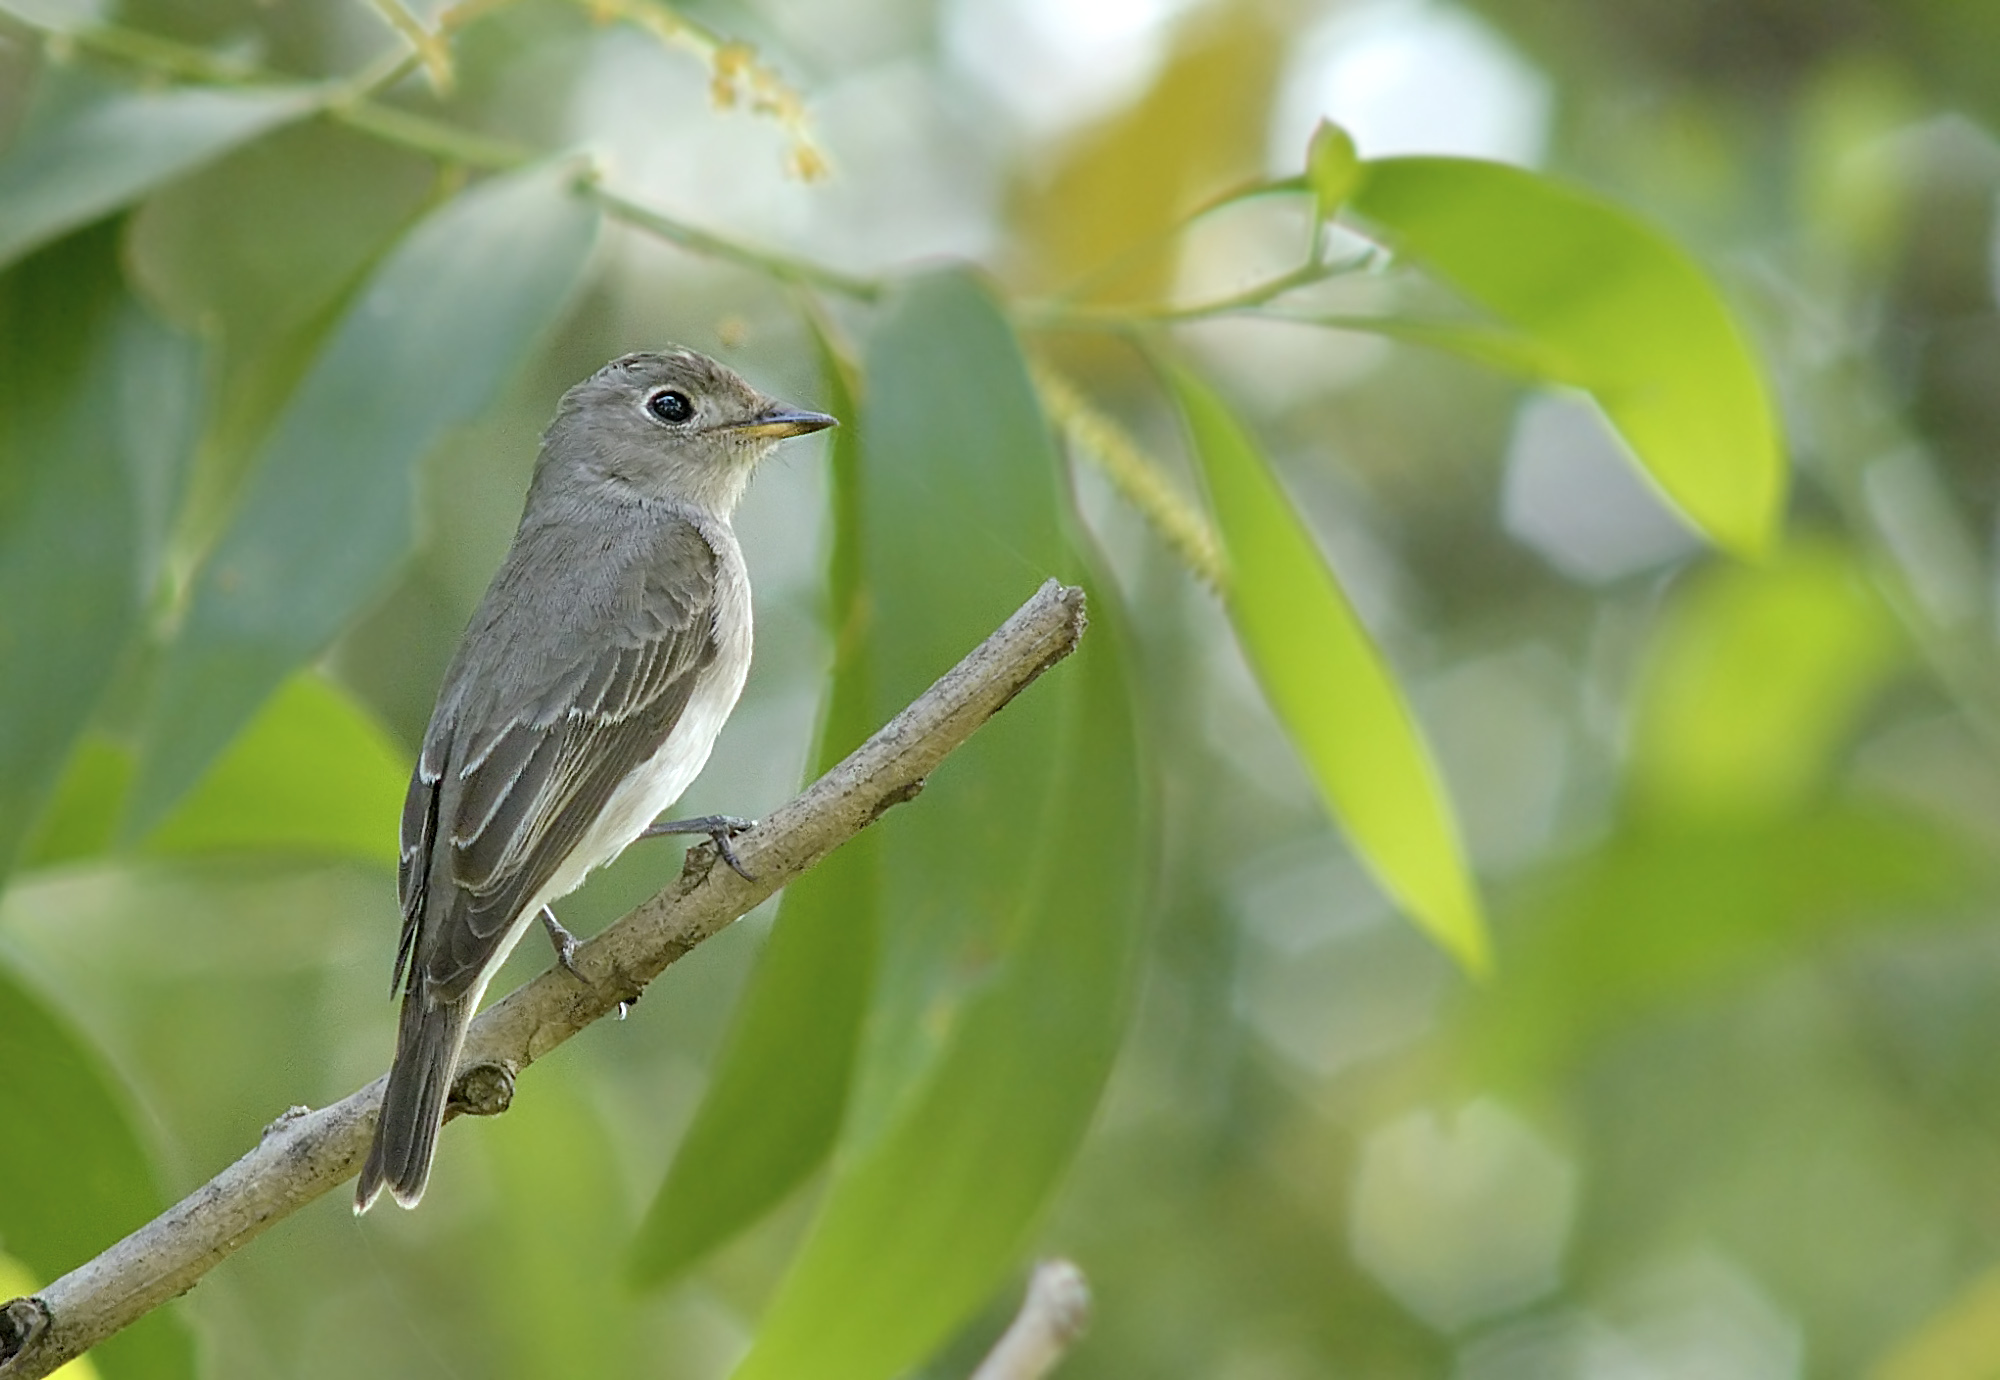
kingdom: Animalia
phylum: Chordata
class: Aves
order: Passeriformes
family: Muscicapidae
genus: Muscicapa
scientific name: Muscicapa latirostris
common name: Asian brown flycatcher
